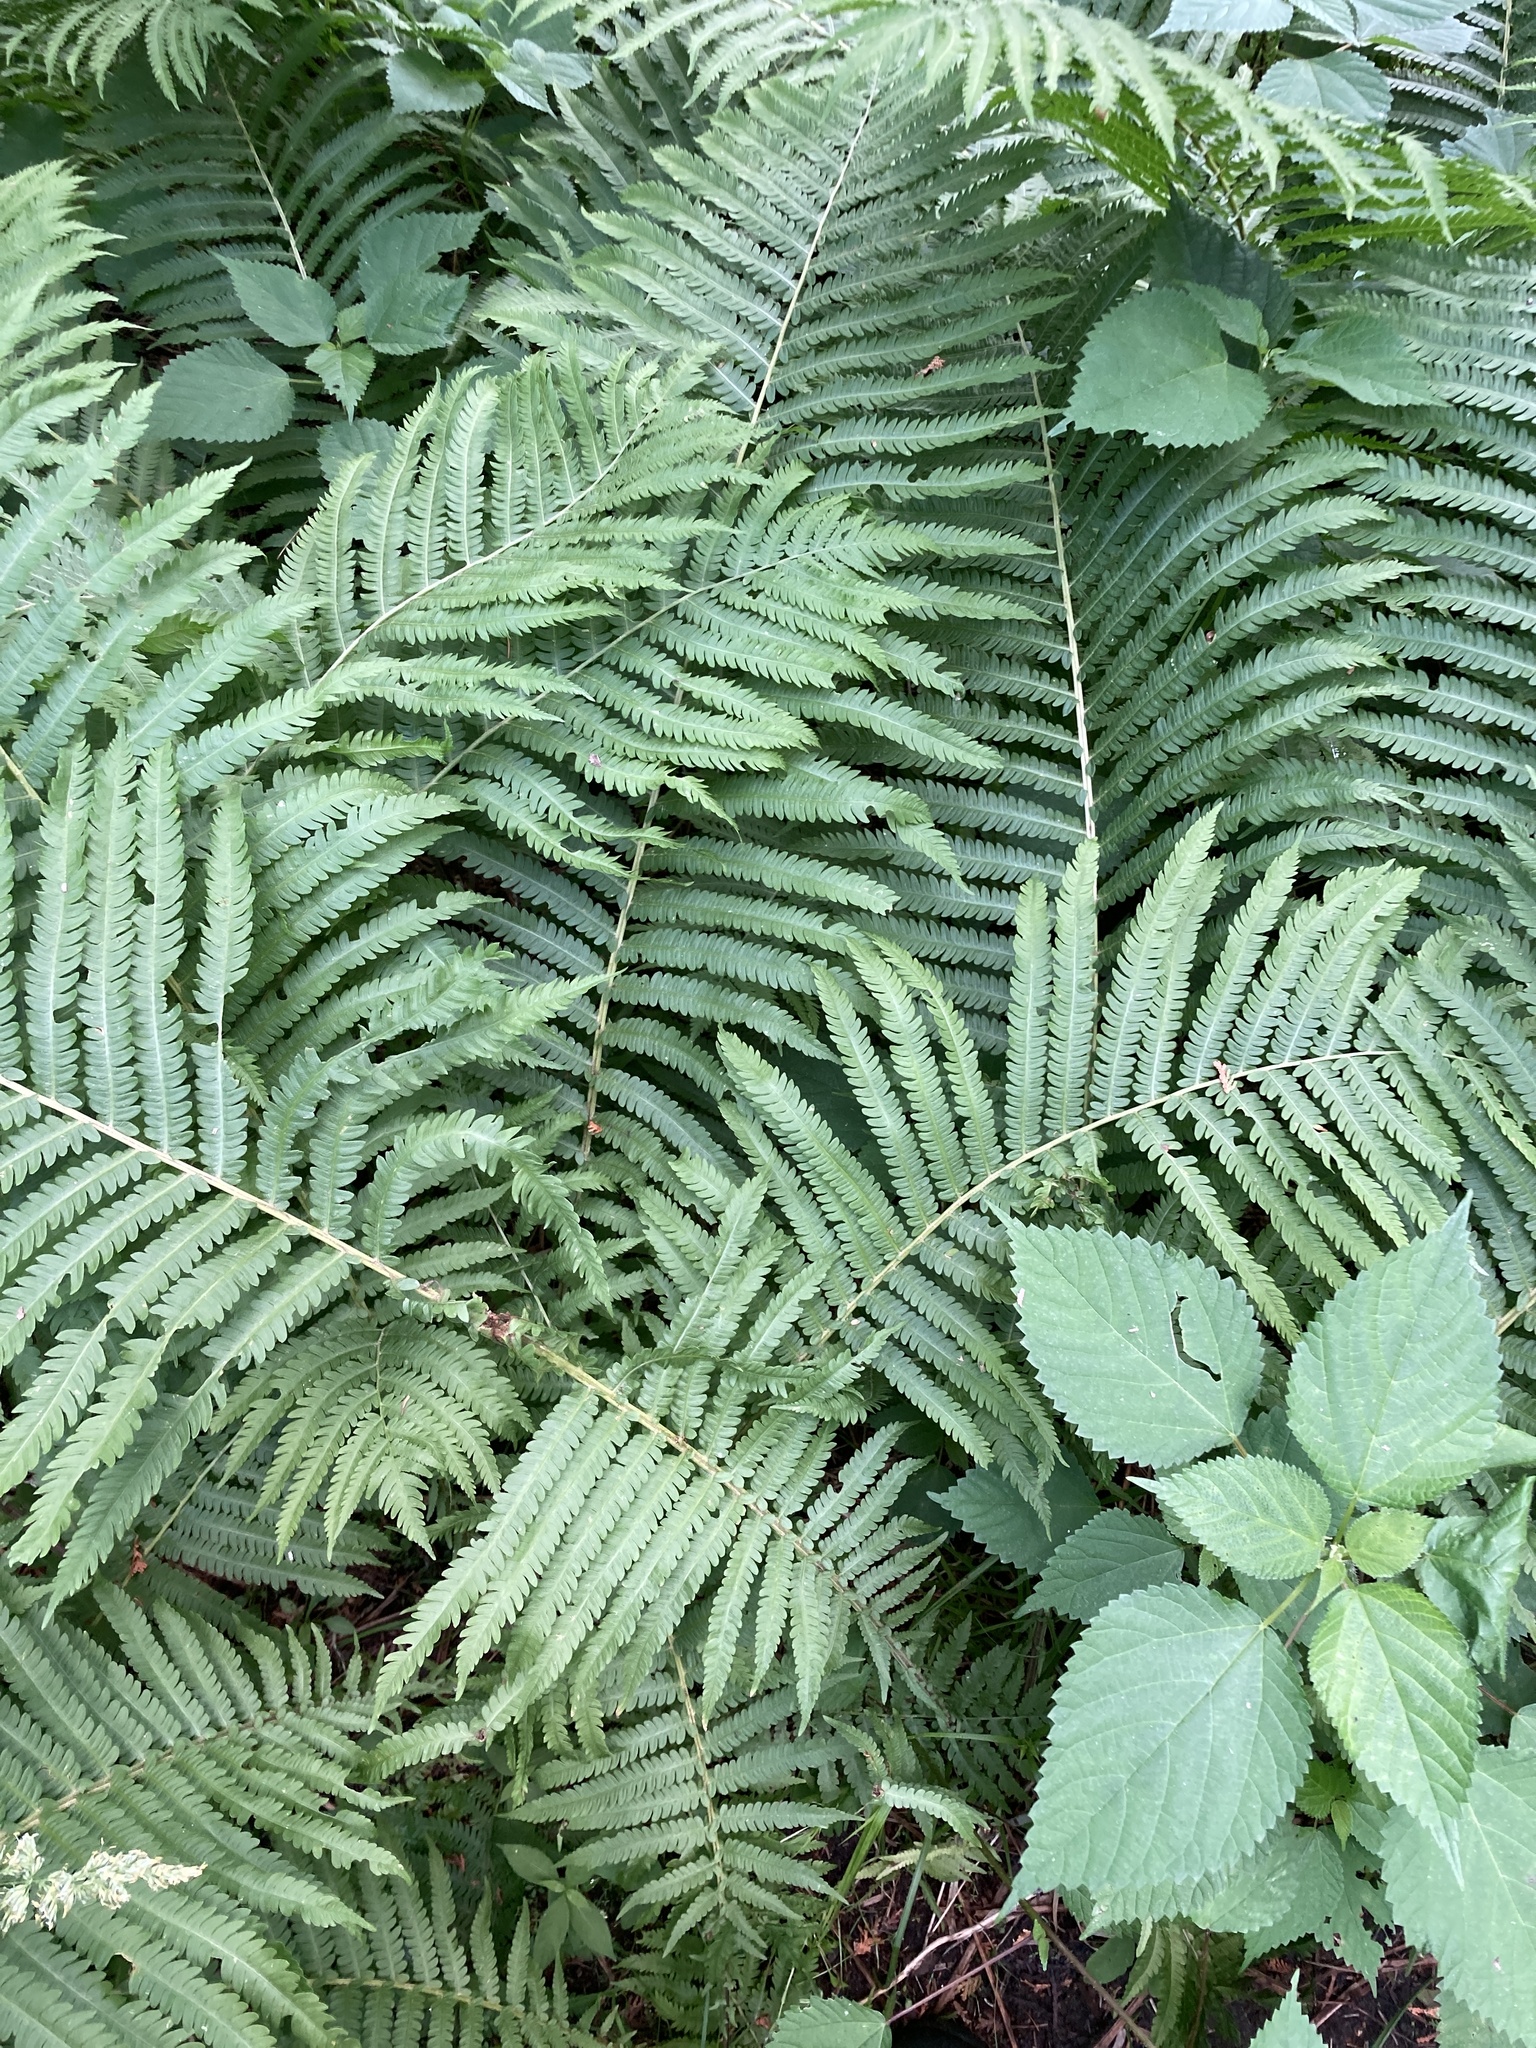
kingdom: Plantae
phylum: Tracheophyta
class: Polypodiopsida
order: Polypodiales
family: Onocleaceae
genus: Matteuccia
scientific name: Matteuccia struthiopteris
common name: Ostrich fern
